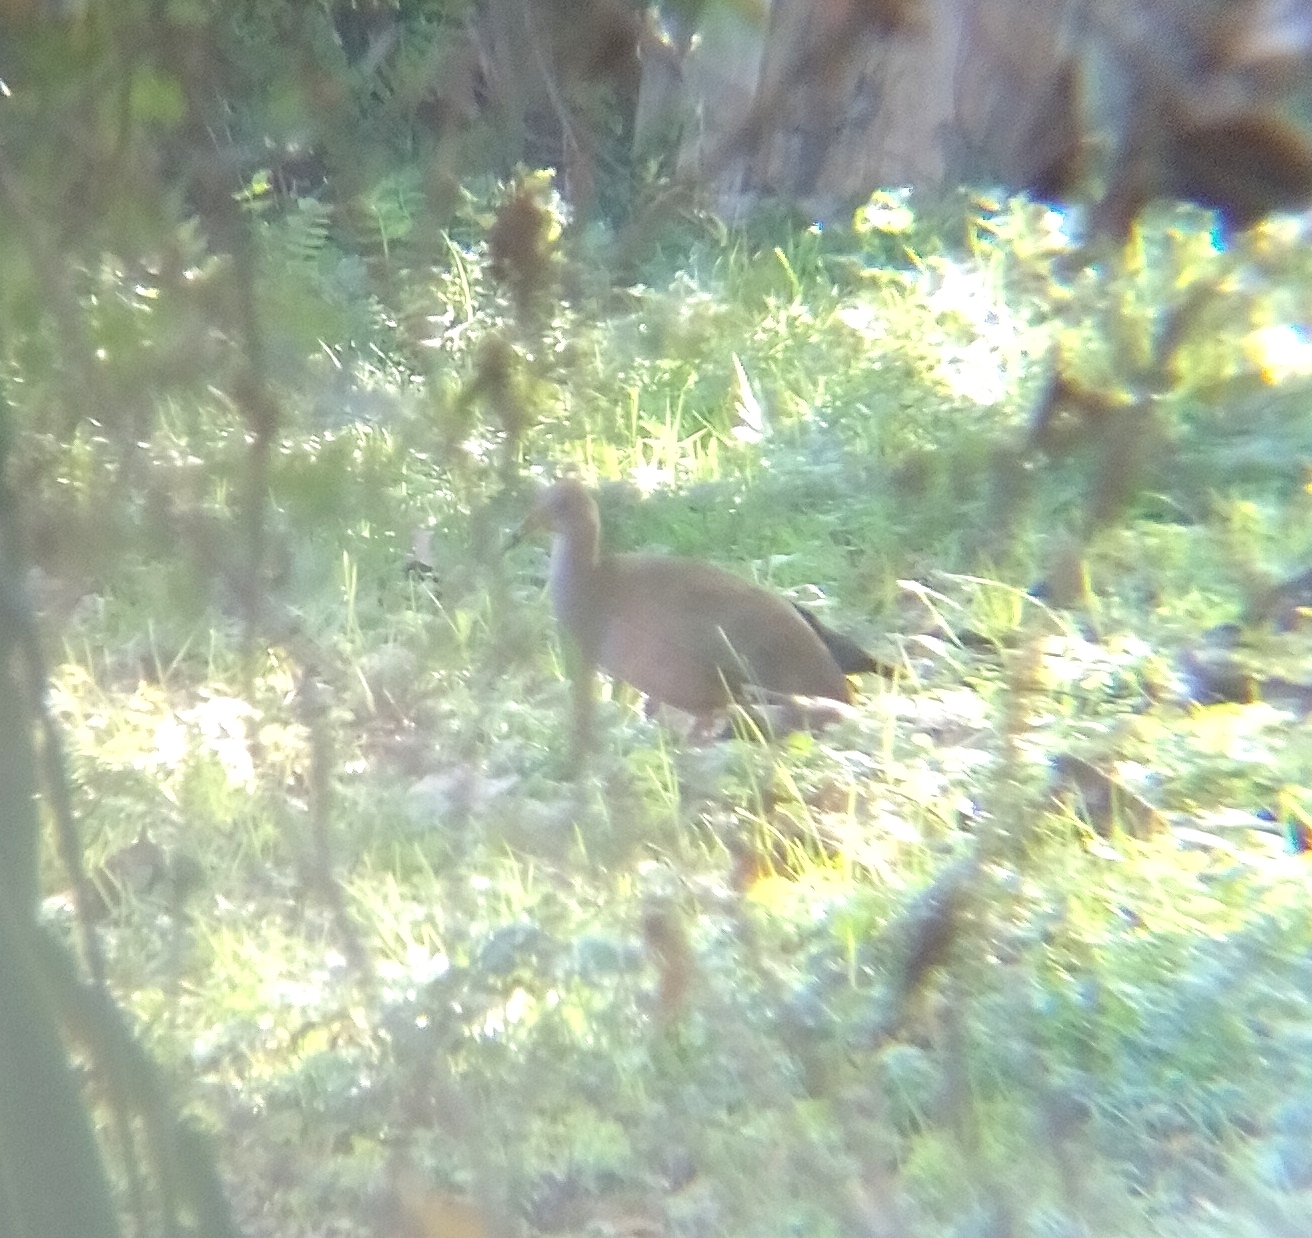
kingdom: Animalia
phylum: Chordata
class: Aves
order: Gruiformes
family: Rallidae
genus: Aramides
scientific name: Aramides ypecaha
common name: Giant wood rail
